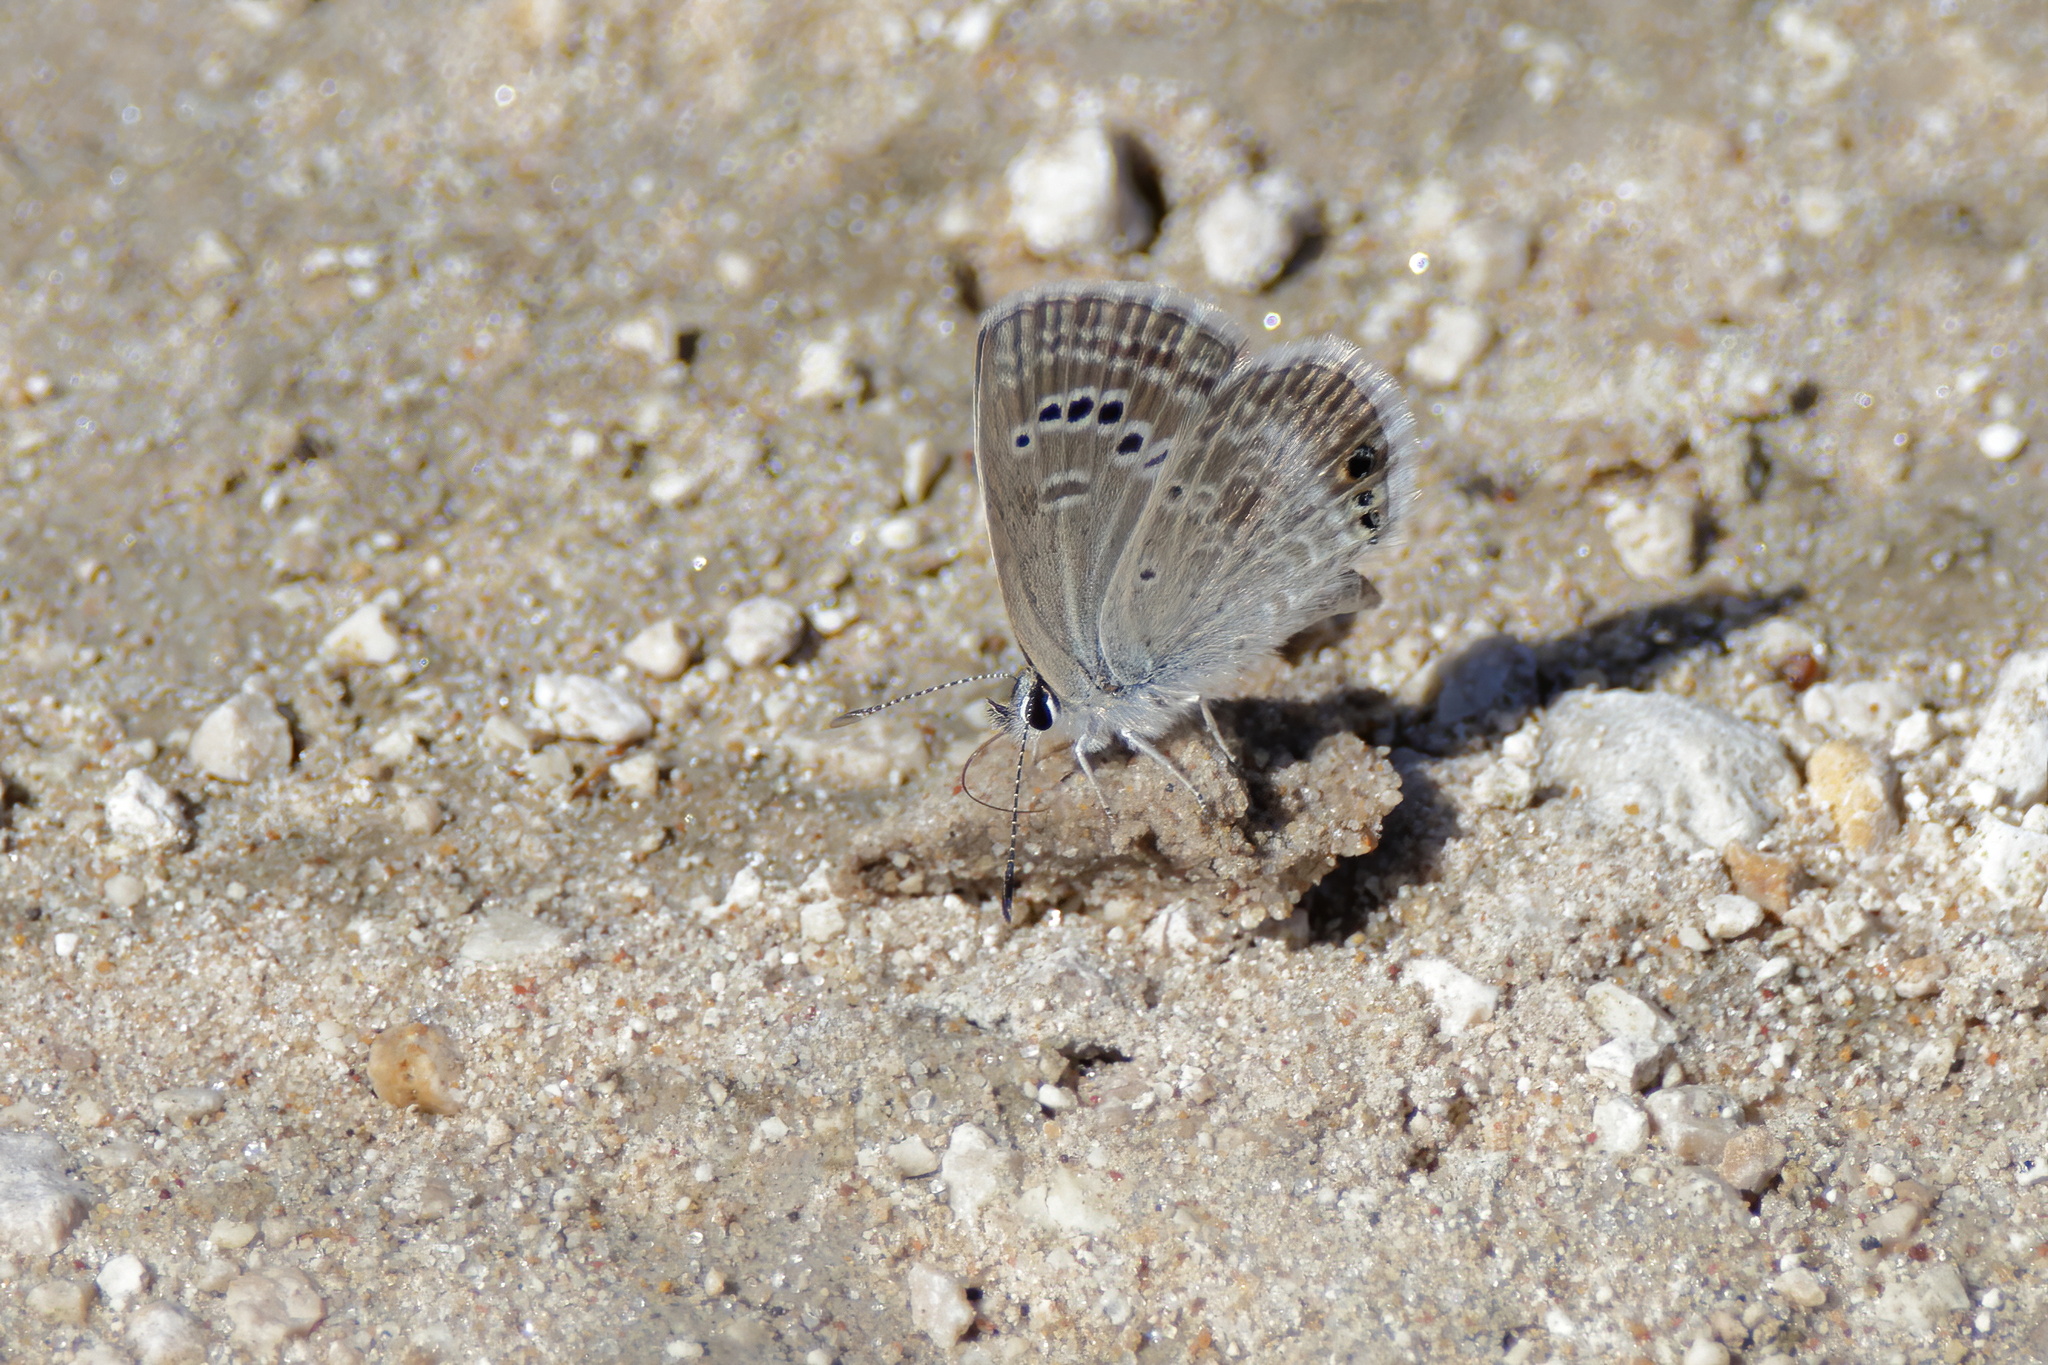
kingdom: Animalia
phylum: Arthropoda
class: Insecta
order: Lepidoptera
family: Lycaenidae
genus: Echinargus
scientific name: Echinargus isola
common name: Reakirt's blue
